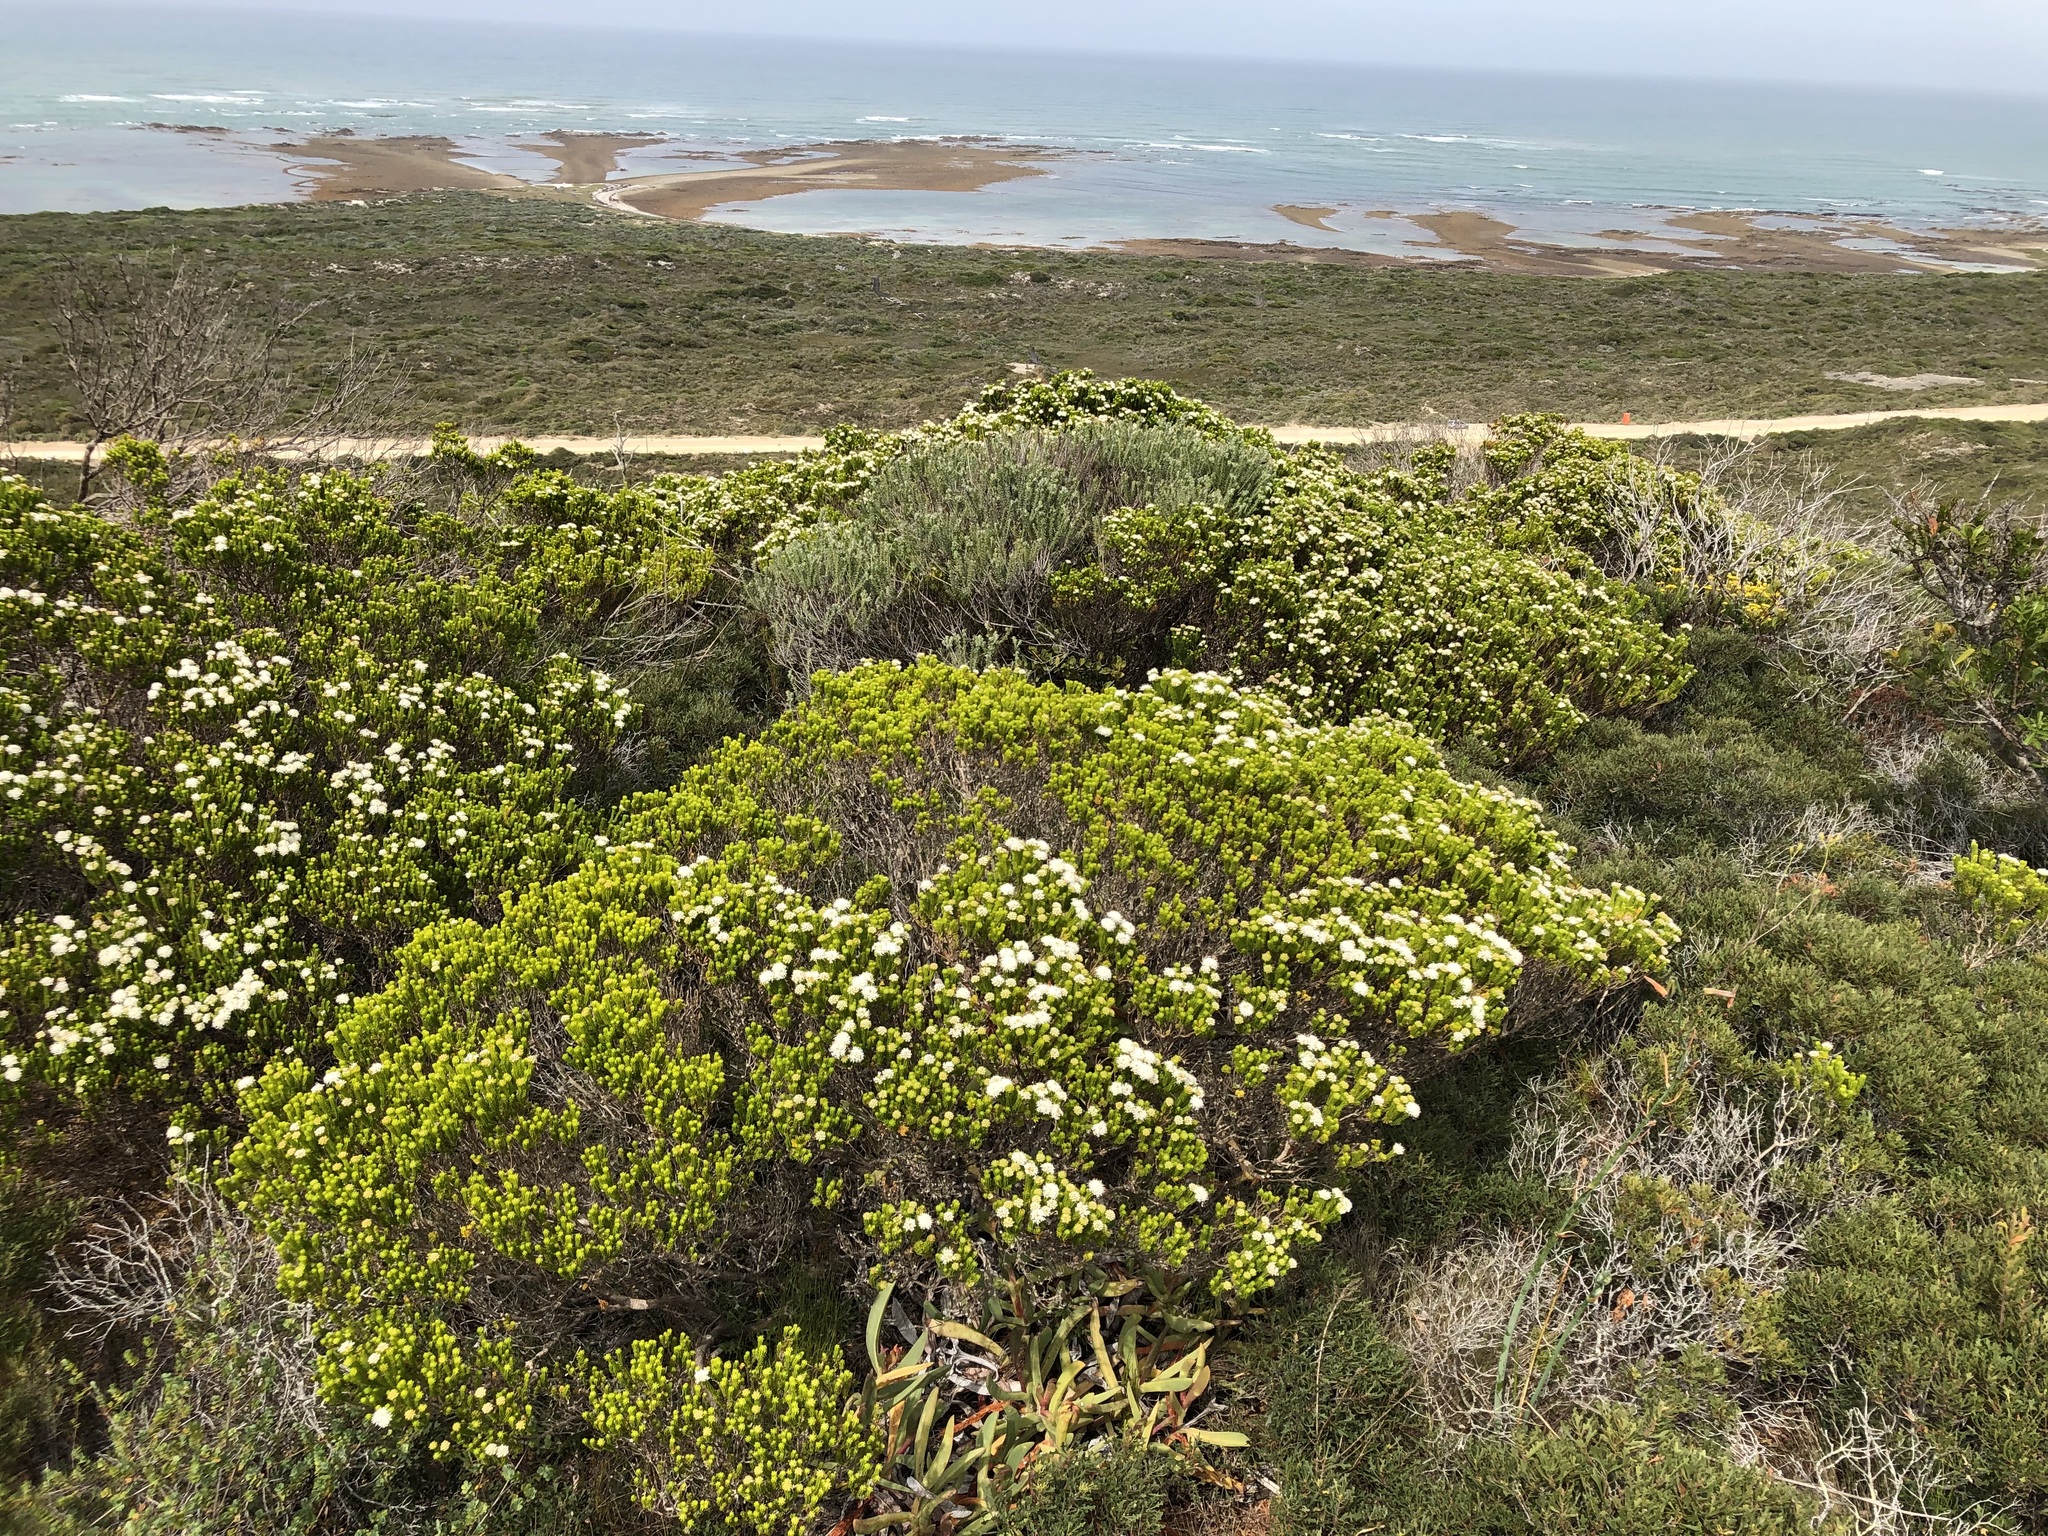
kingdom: Plantae
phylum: Tracheophyta
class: Magnoliopsida
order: Sapindales
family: Rutaceae
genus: Agathosma
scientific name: Agathosma collina
